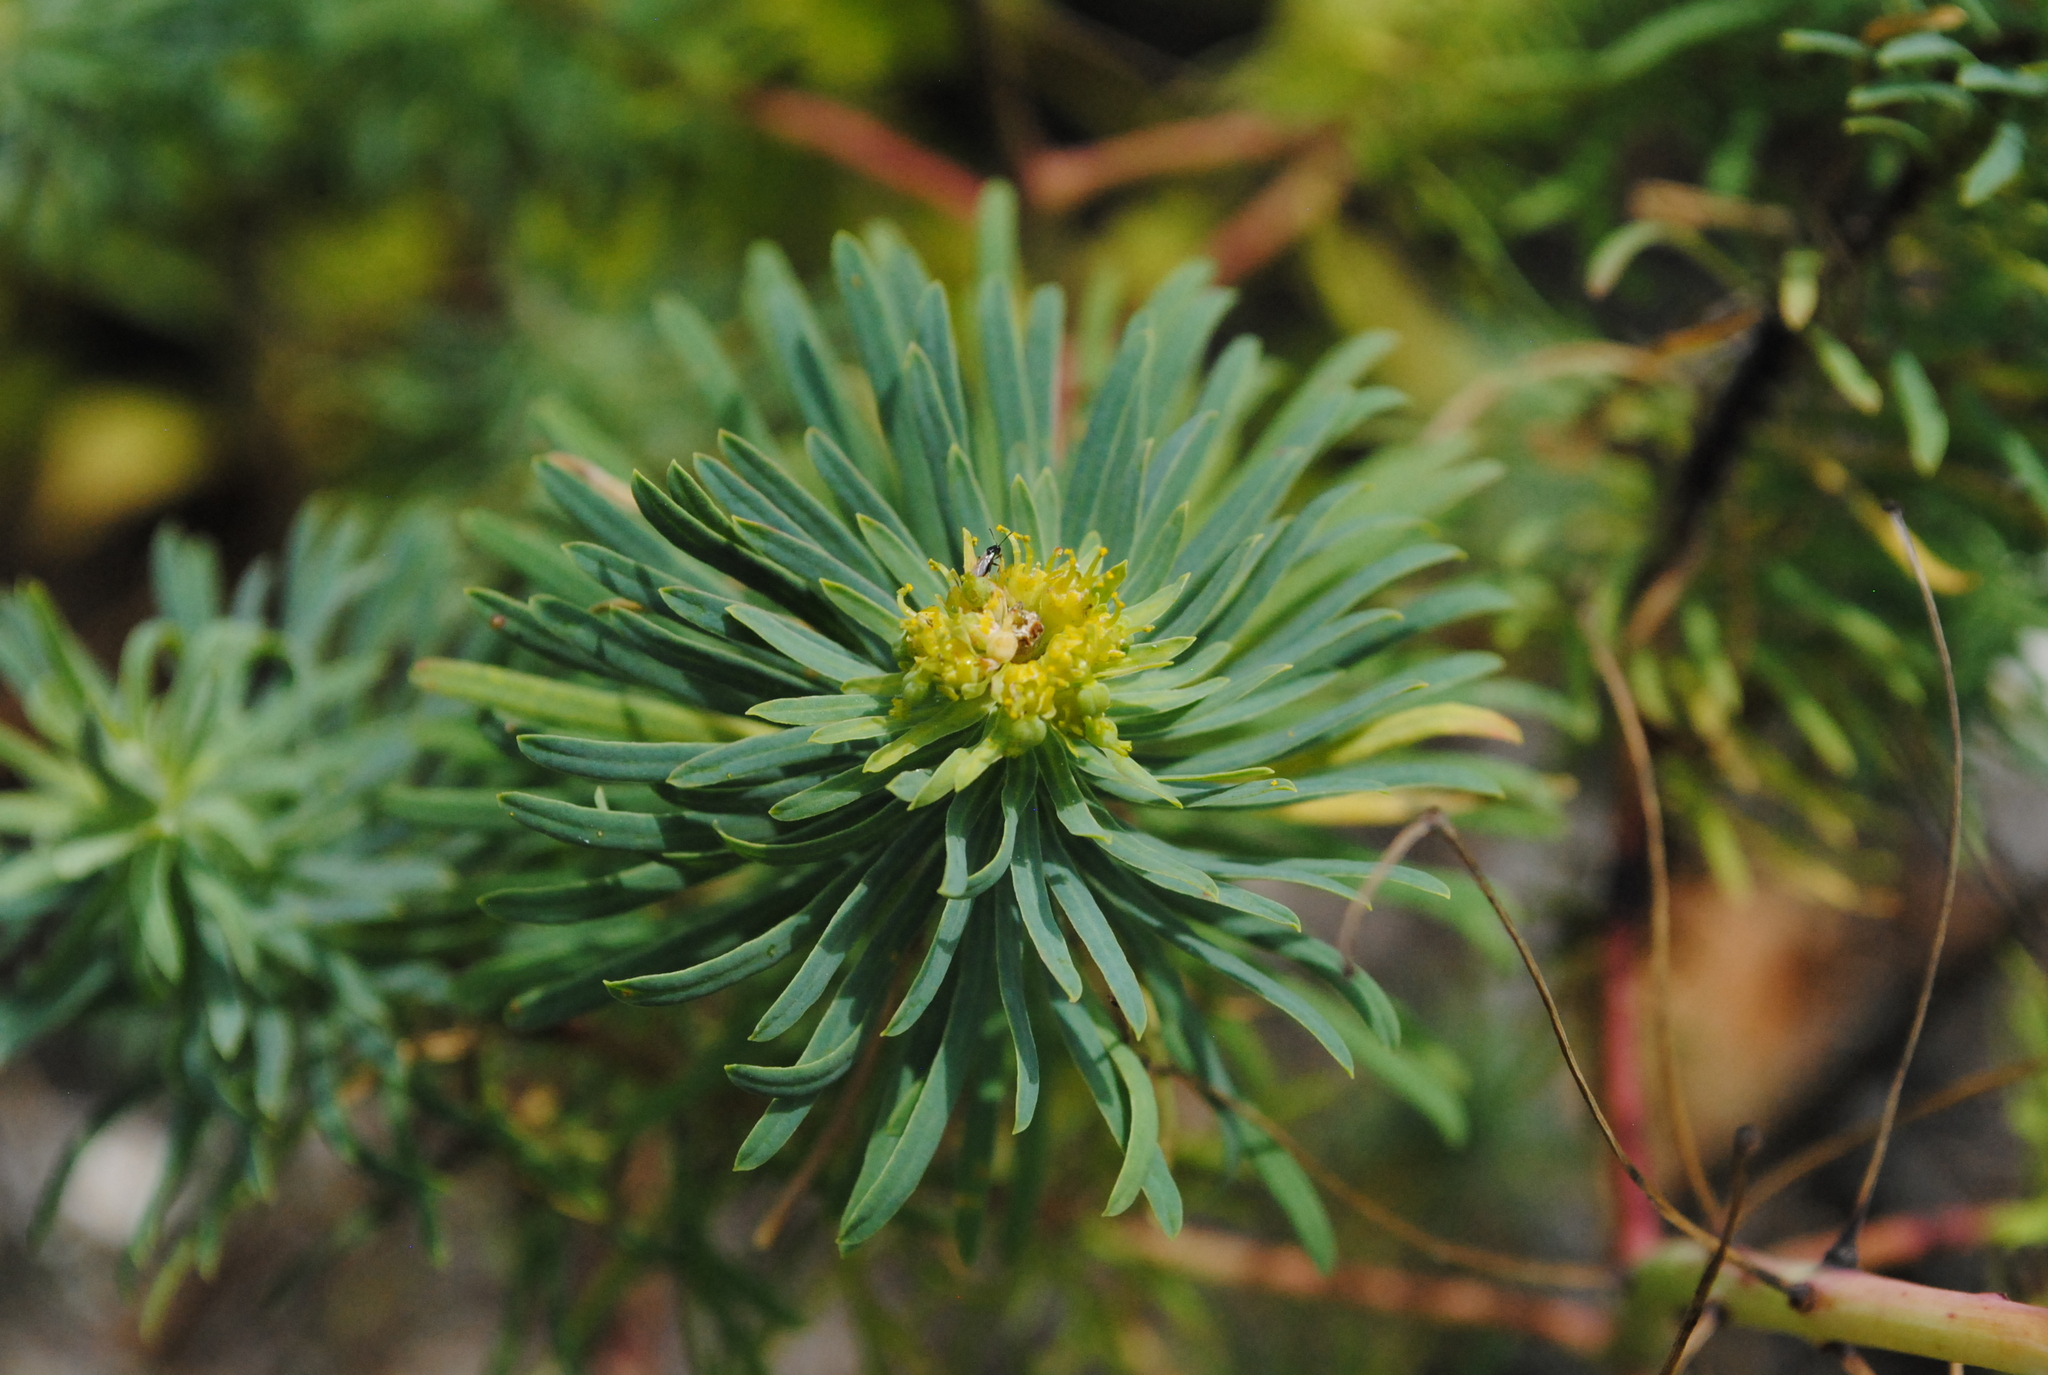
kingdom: Plantae
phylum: Tracheophyta
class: Magnoliopsida
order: Malpighiales
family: Euphorbiaceae
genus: Euphorbia
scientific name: Euphorbia cyparissias
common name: Cypress spurge
